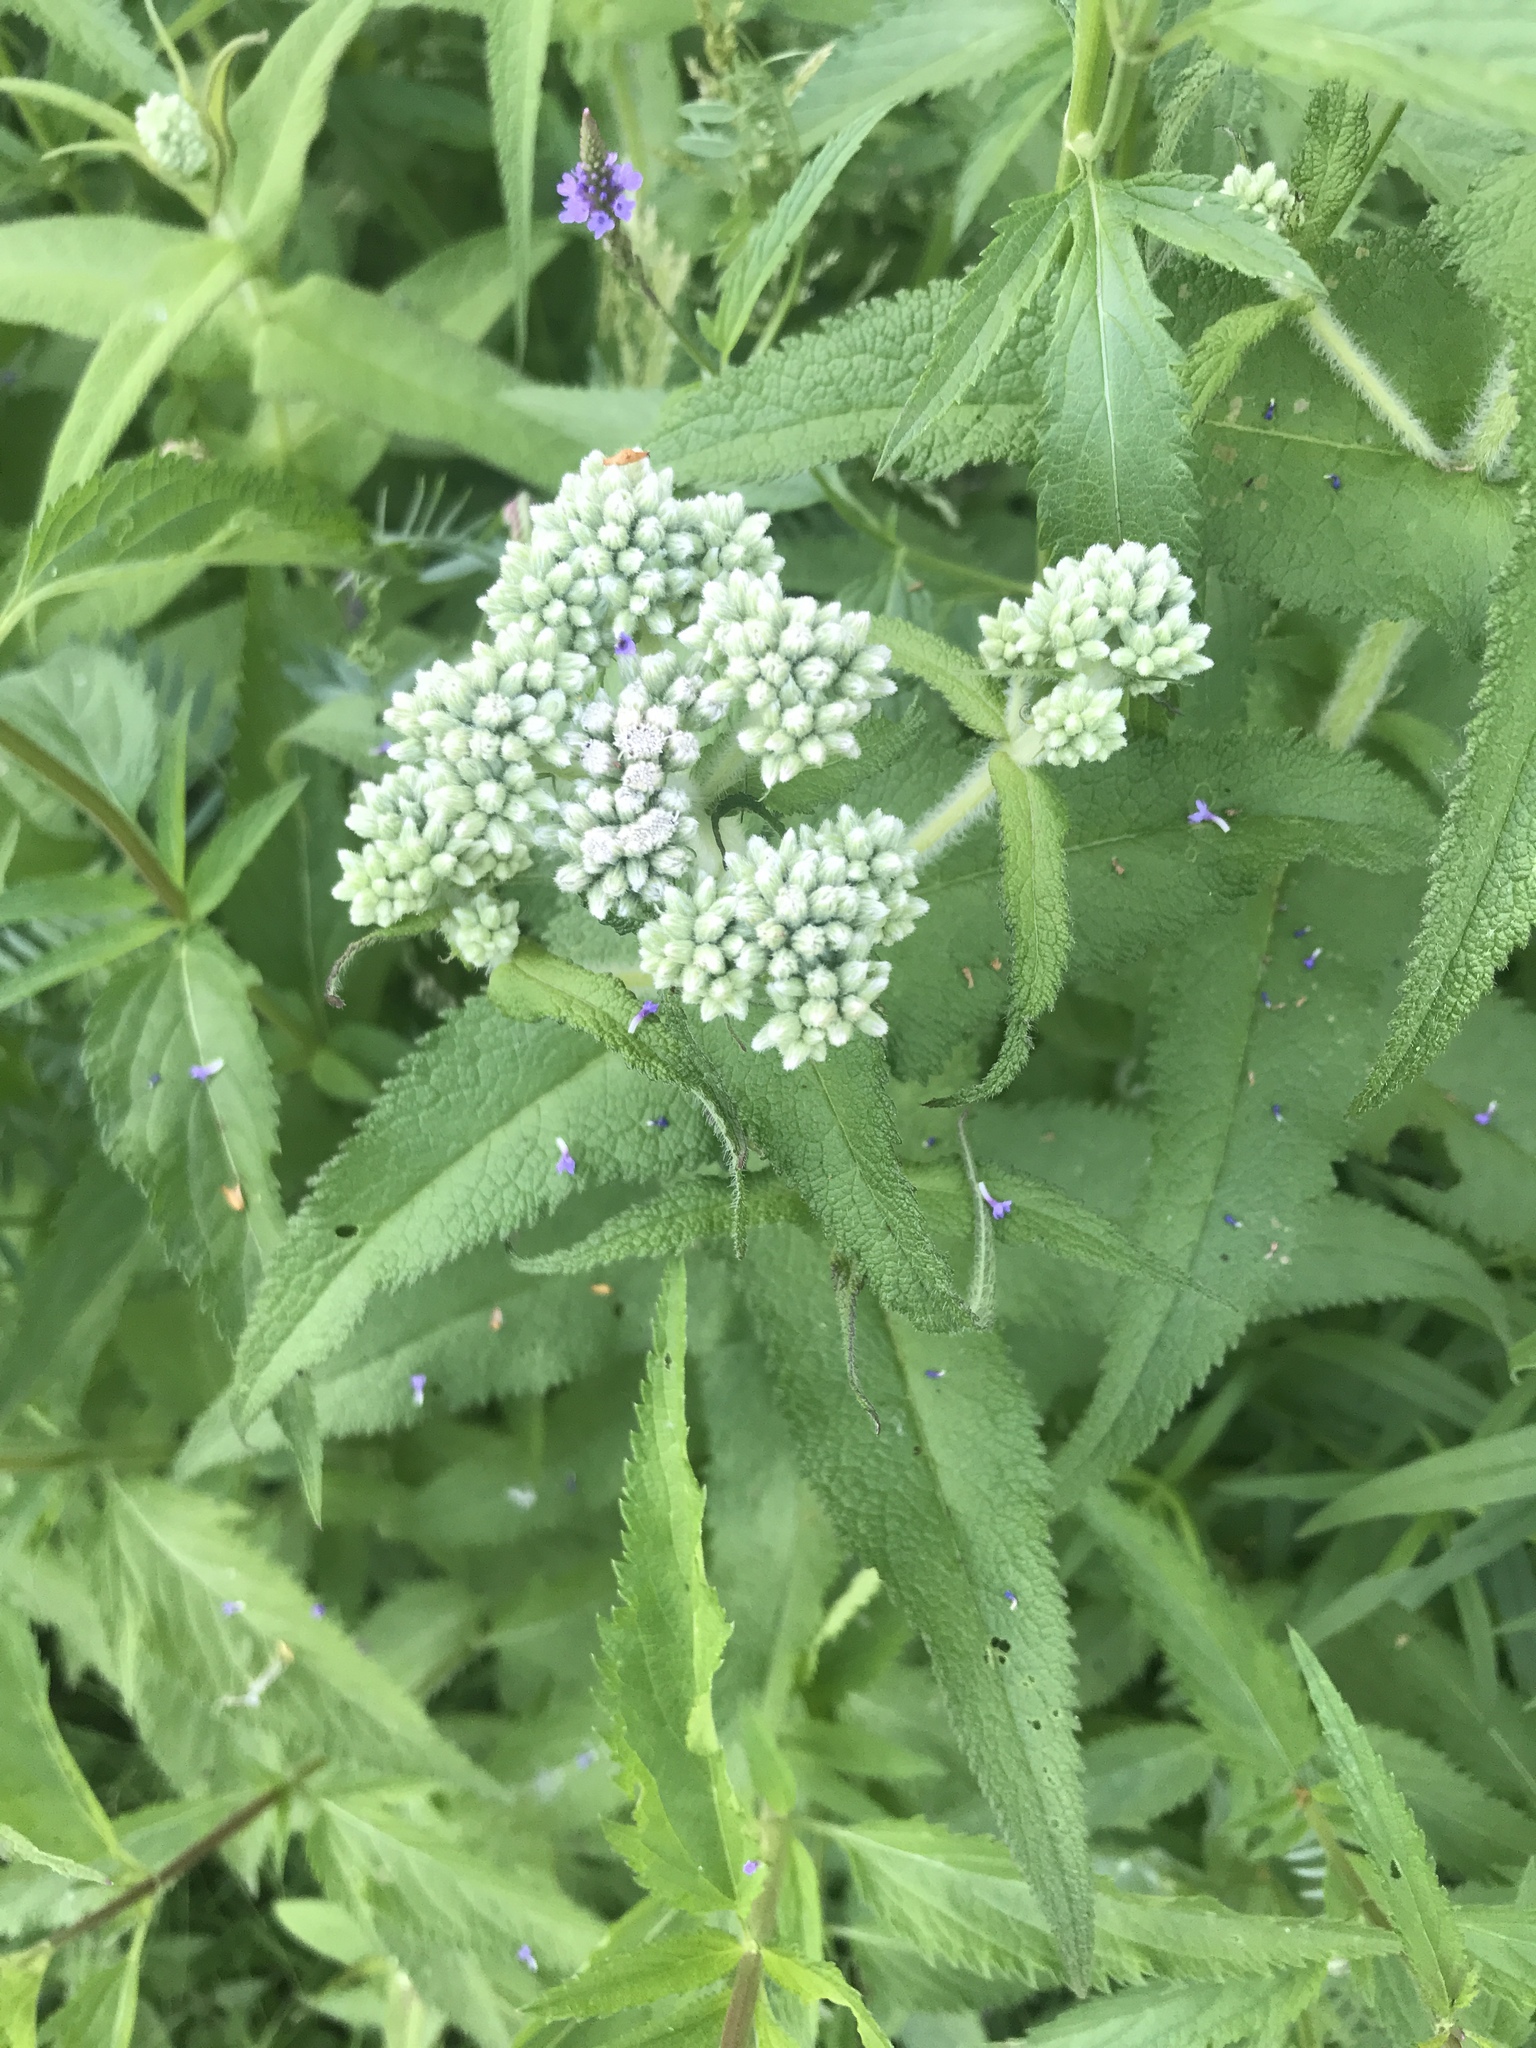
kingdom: Plantae
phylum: Tracheophyta
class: Magnoliopsida
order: Asterales
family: Asteraceae
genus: Eupatorium
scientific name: Eupatorium perfoliatum
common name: Boneset
